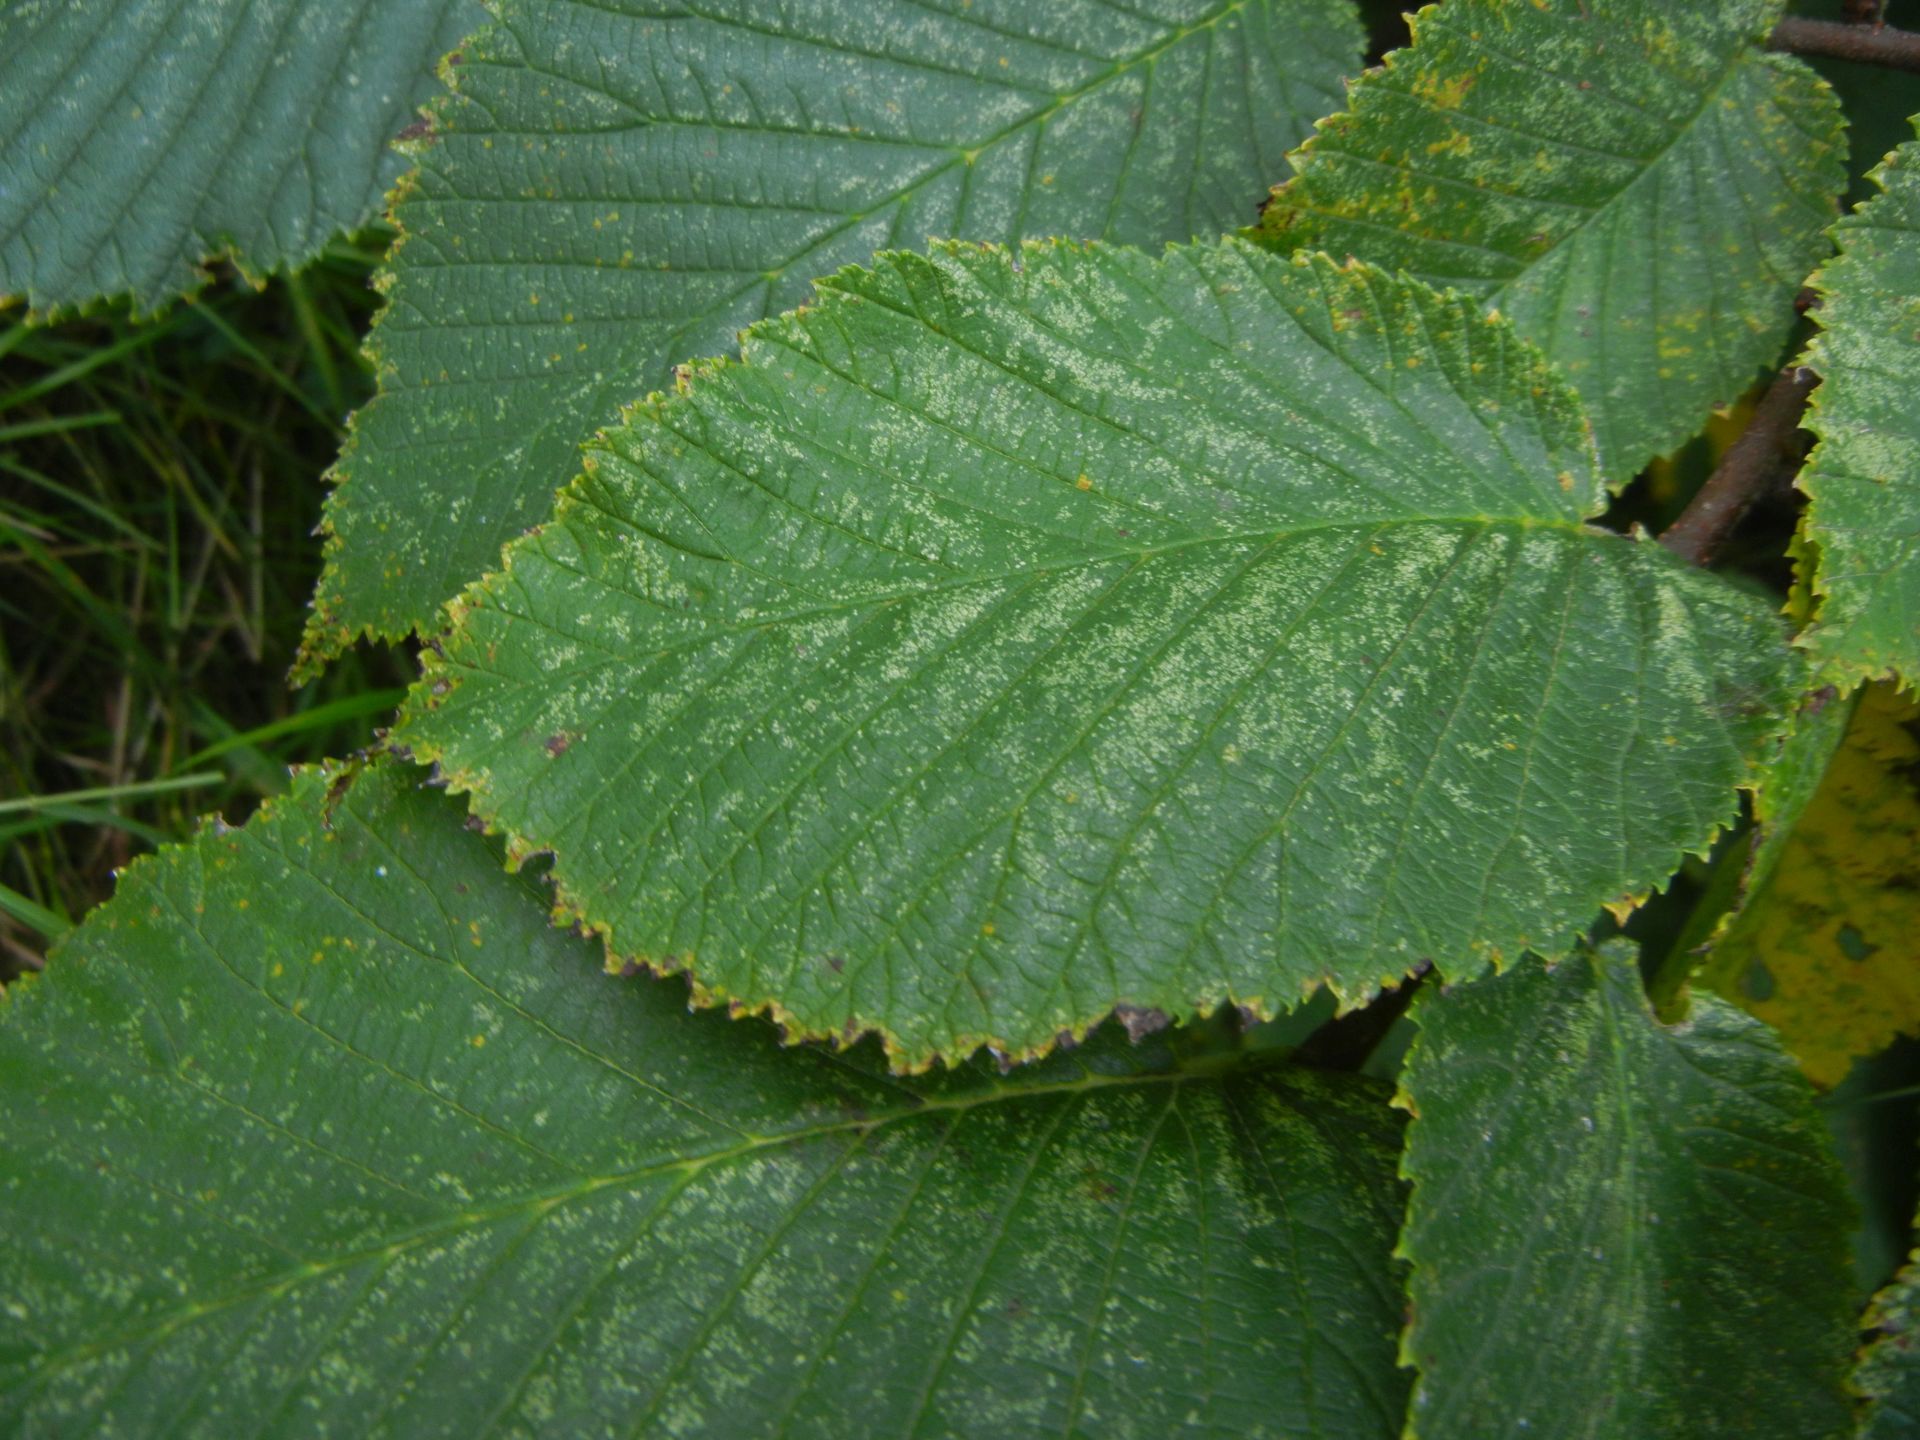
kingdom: Plantae
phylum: Tracheophyta
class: Magnoliopsida
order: Rosales
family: Ulmaceae
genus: Ulmus
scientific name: Ulmus glabra
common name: Wych elm
